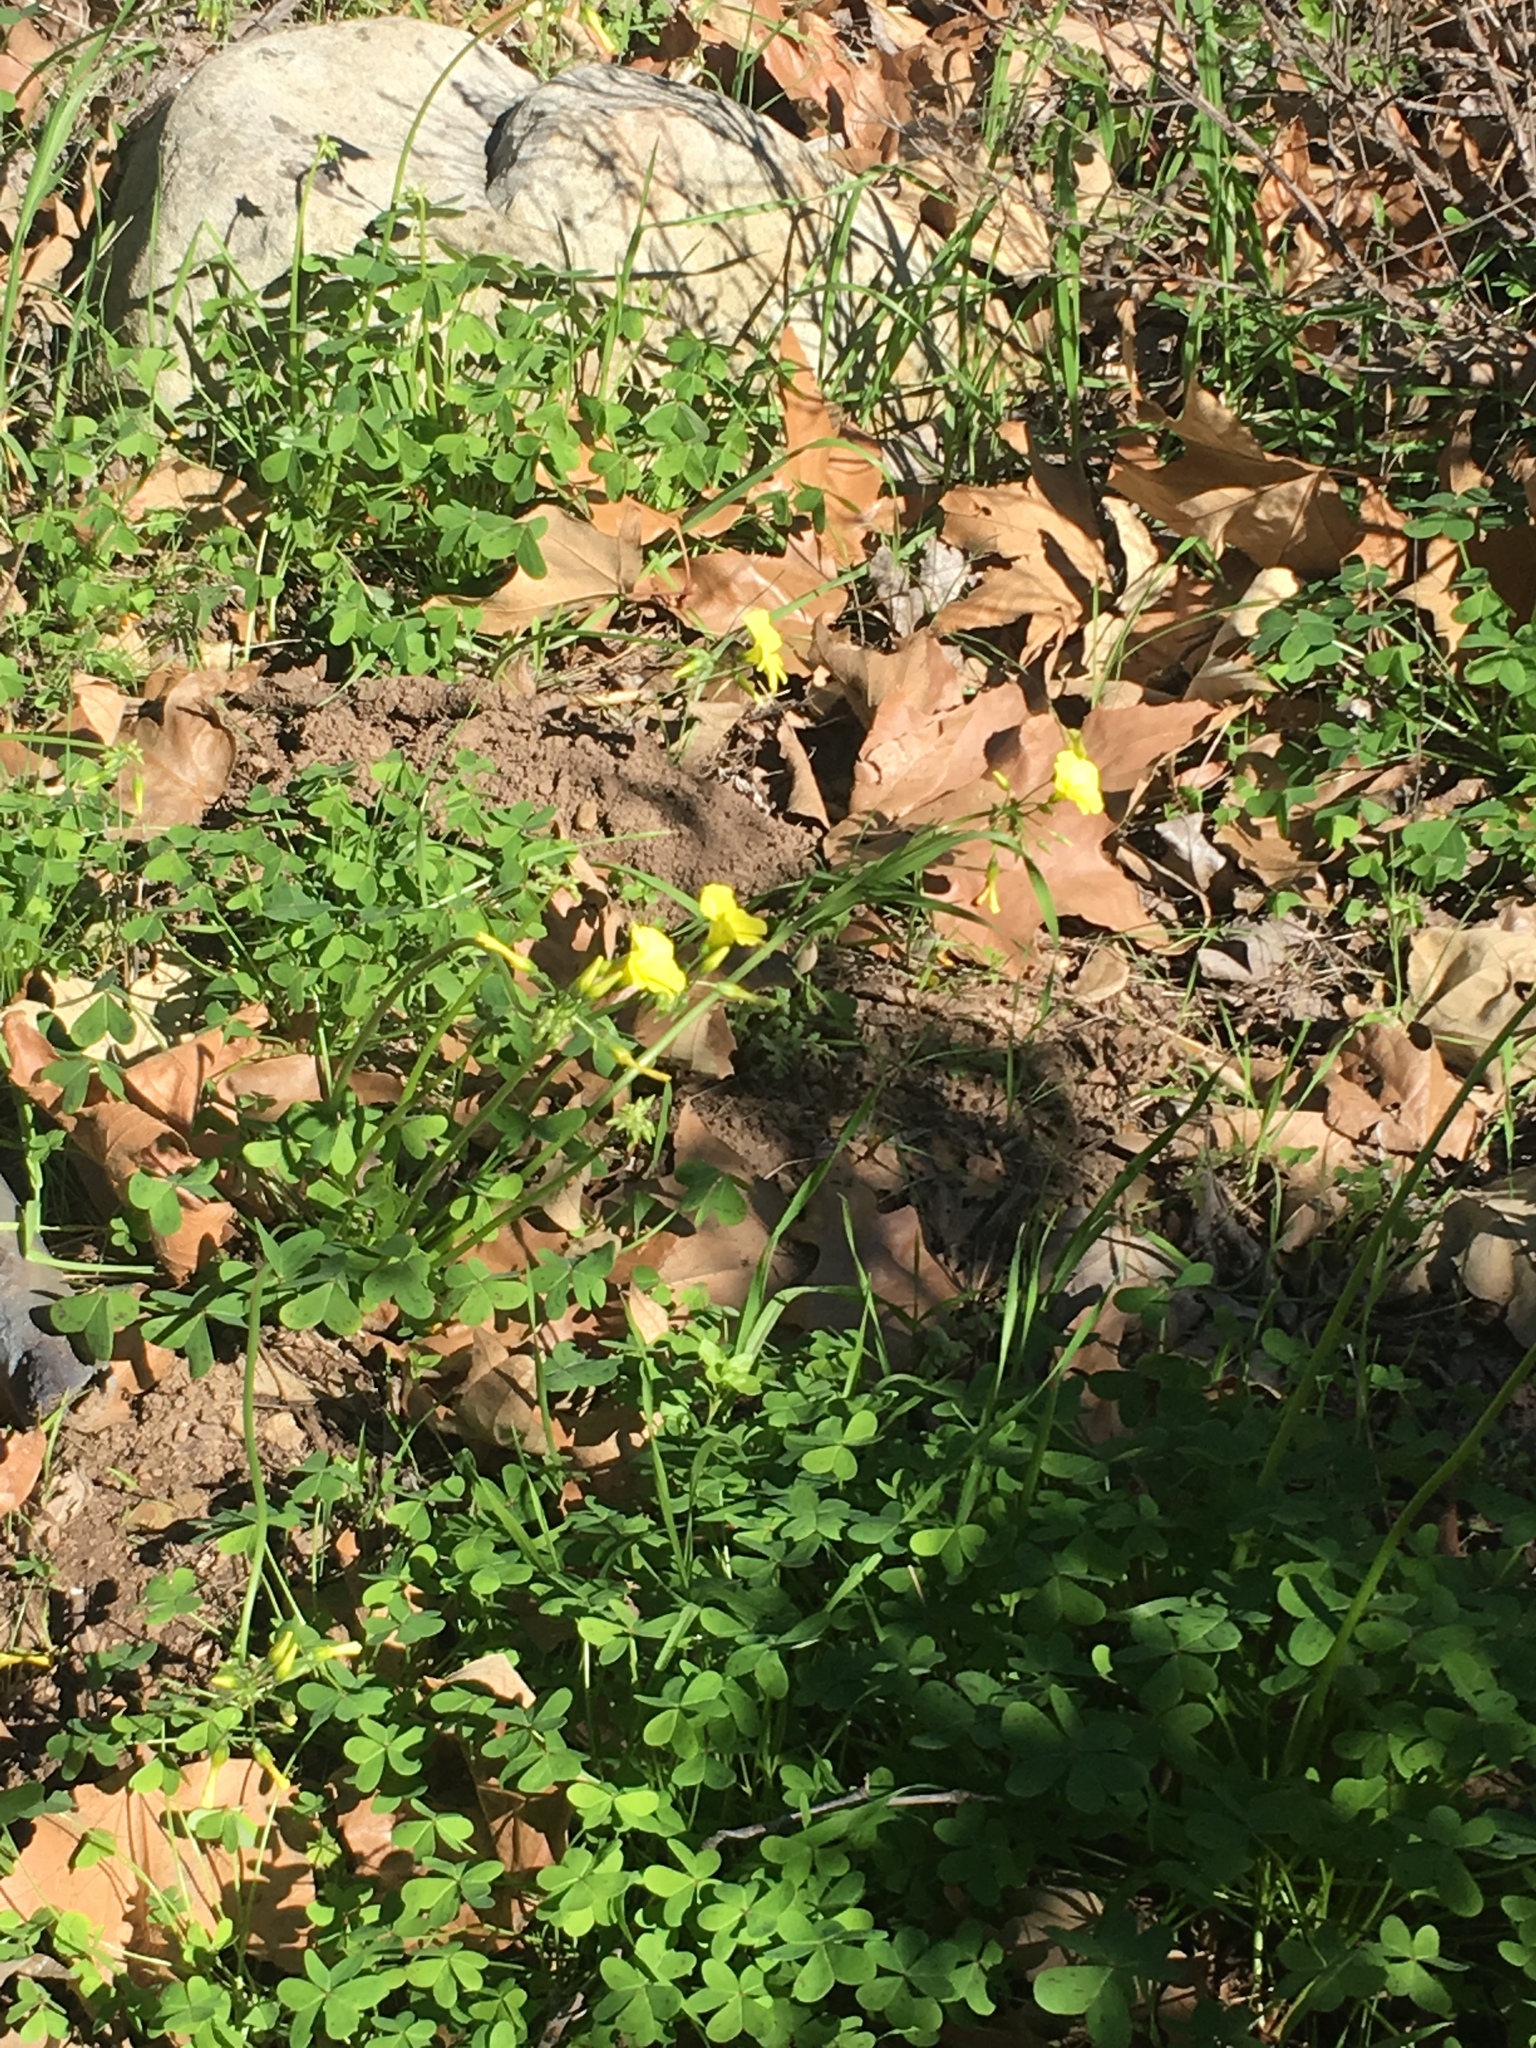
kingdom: Plantae
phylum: Tracheophyta
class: Magnoliopsida
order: Oxalidales
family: Oxalidaceae
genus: Oxalis
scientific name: Oxalis pes-caprae
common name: Bermuda-buttercup
